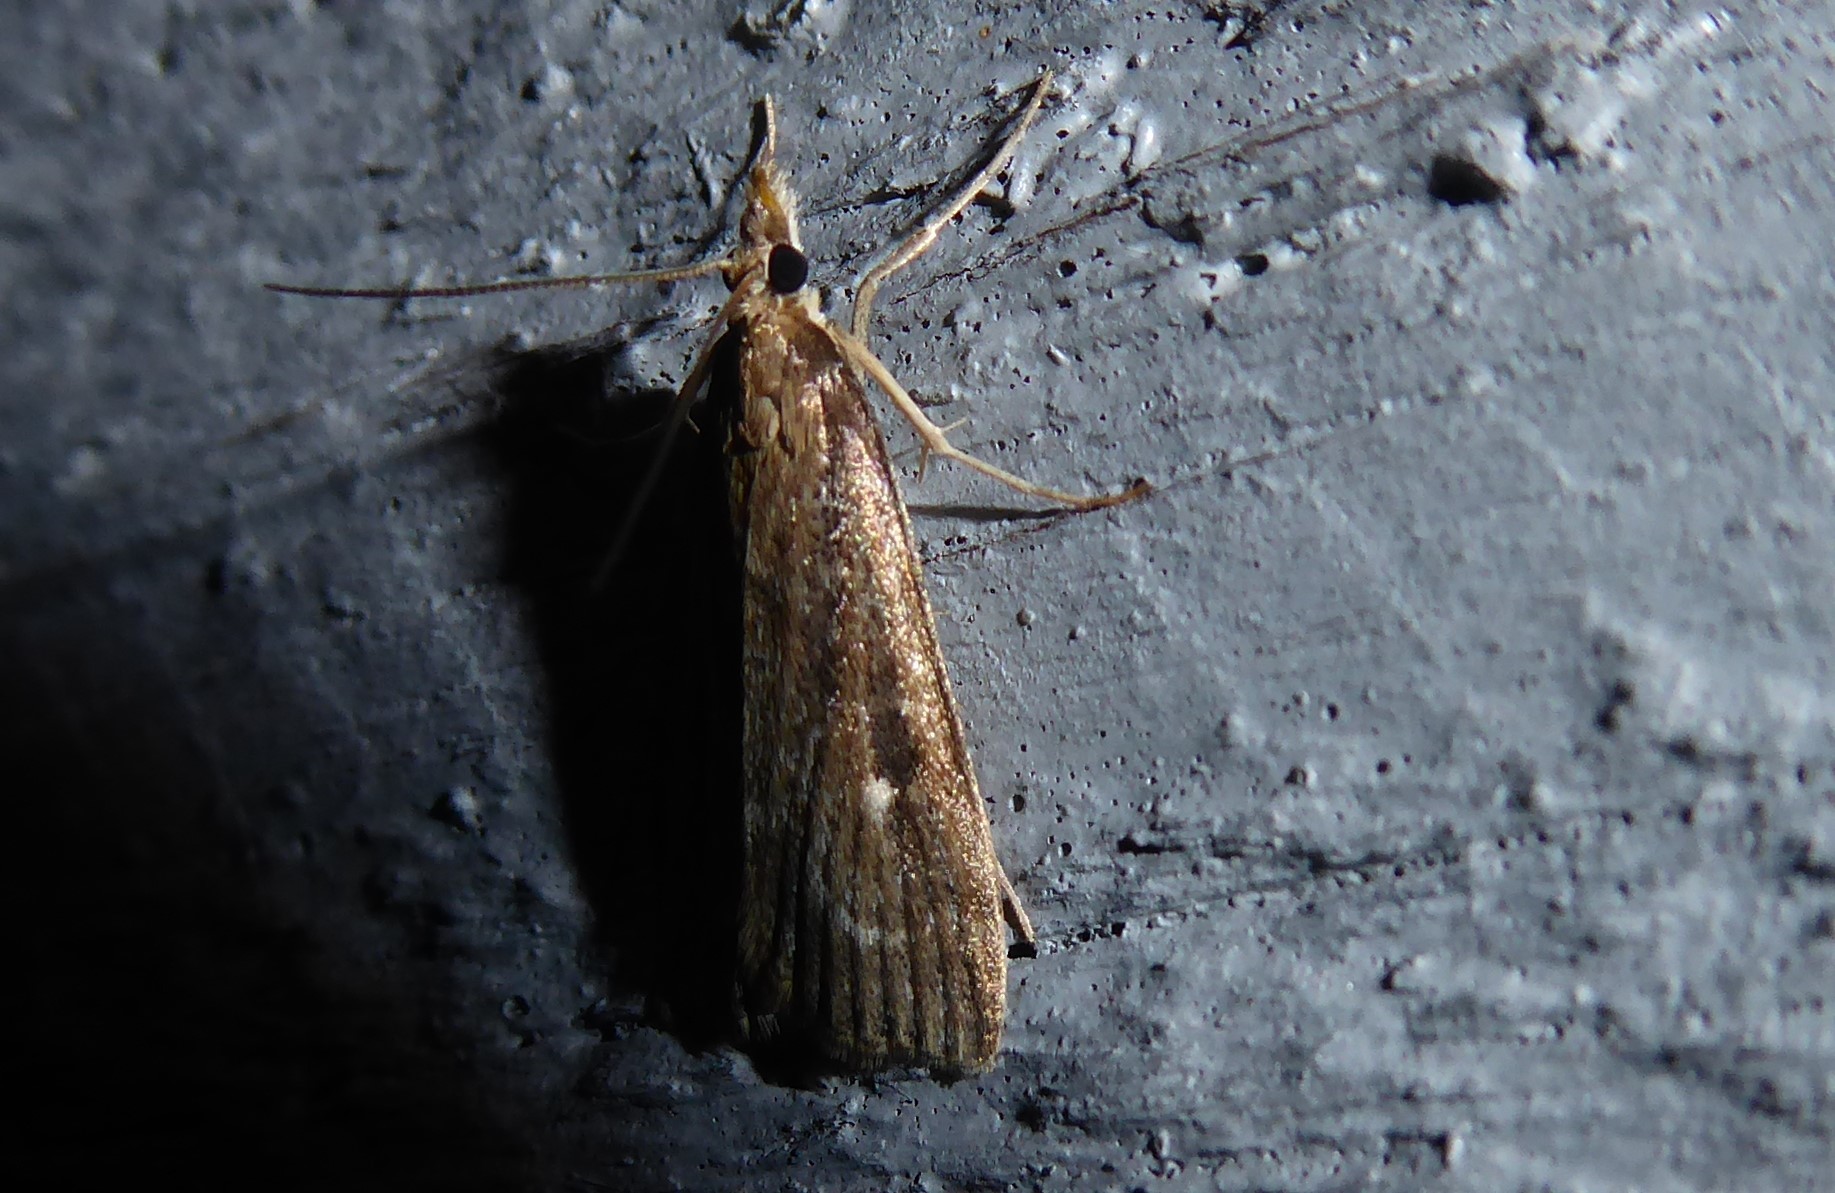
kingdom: Animalia
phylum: Arthropoda
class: Insecta
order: Lepidoptera
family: Crambidae
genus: Eudonia
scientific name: Eudonia octophora
